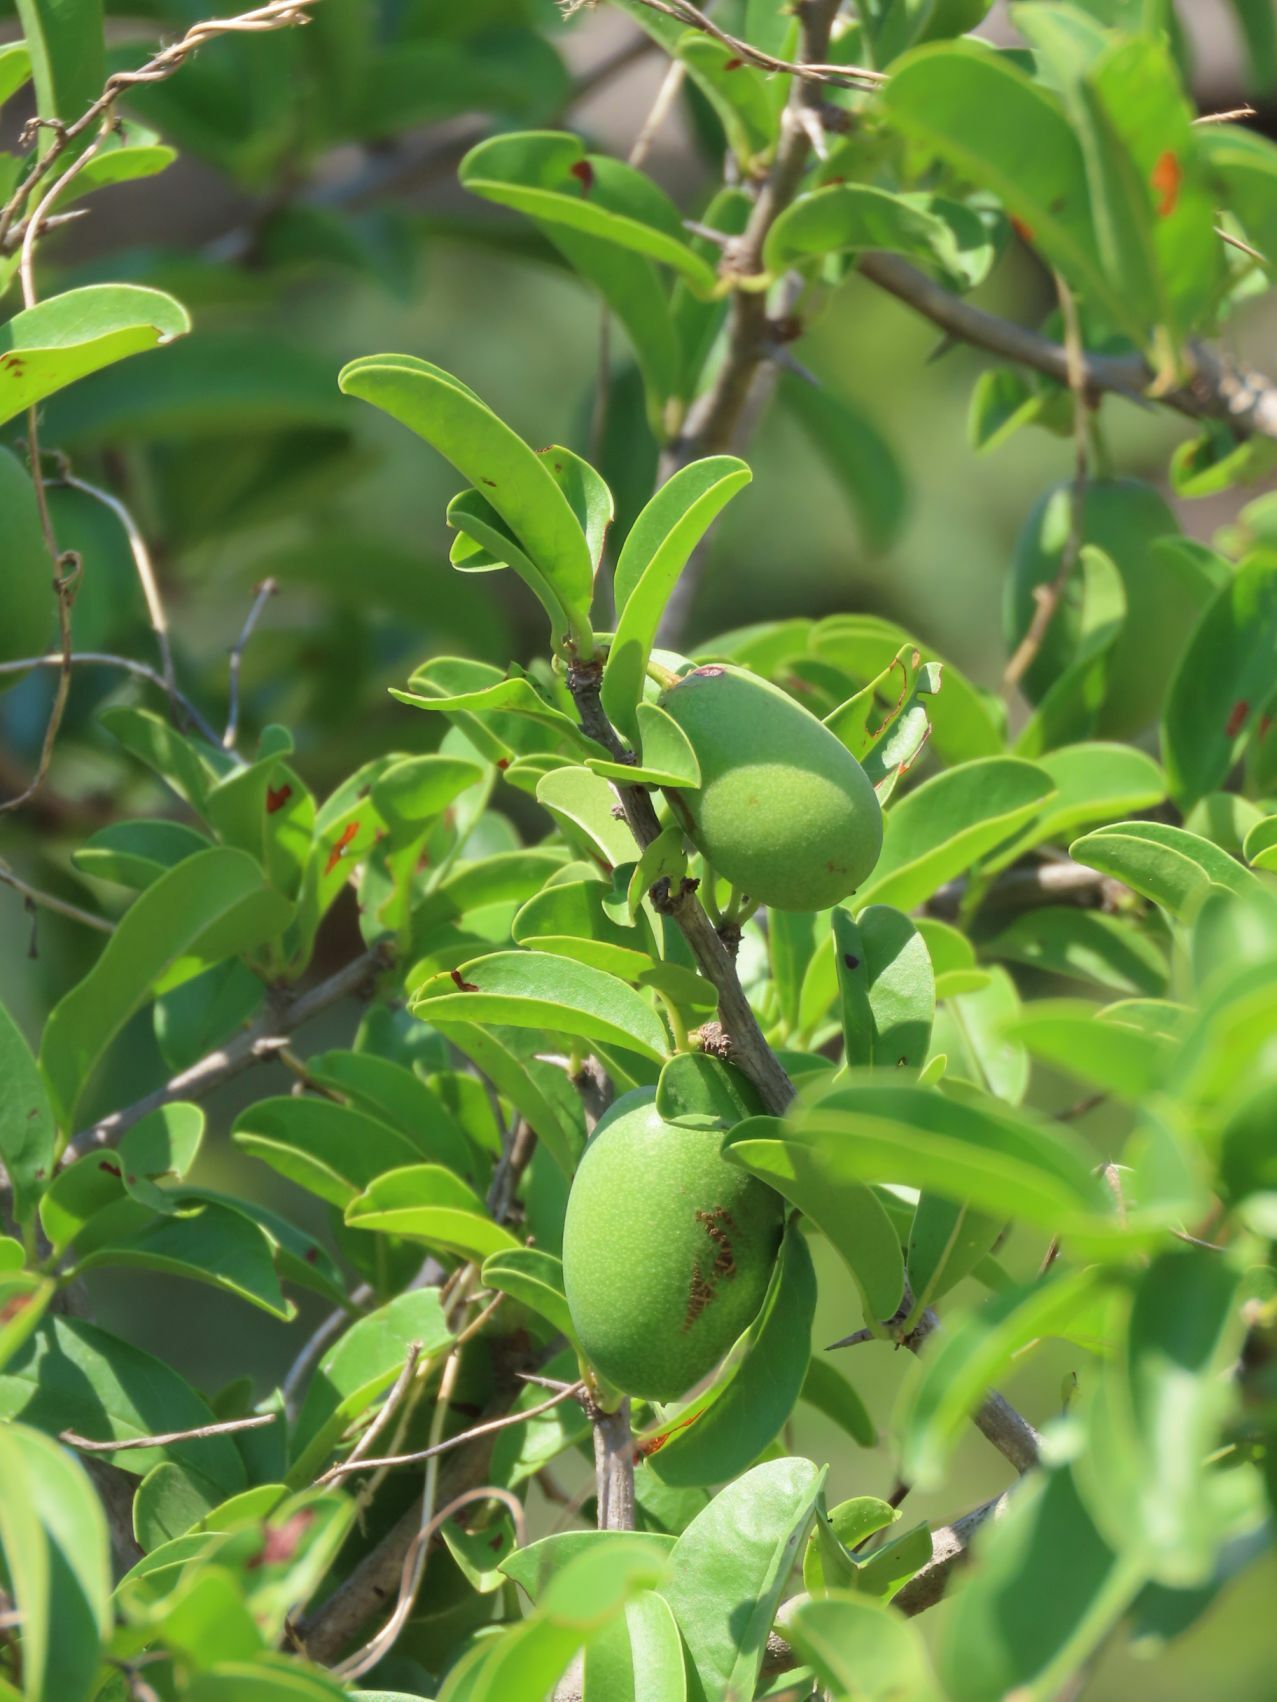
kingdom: Plantae
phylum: Tracheophyta
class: Magnoliopsida
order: Santalales
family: Ximeniaceae
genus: Ximenia
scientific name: Ximenia caffra
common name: Large sourplum
